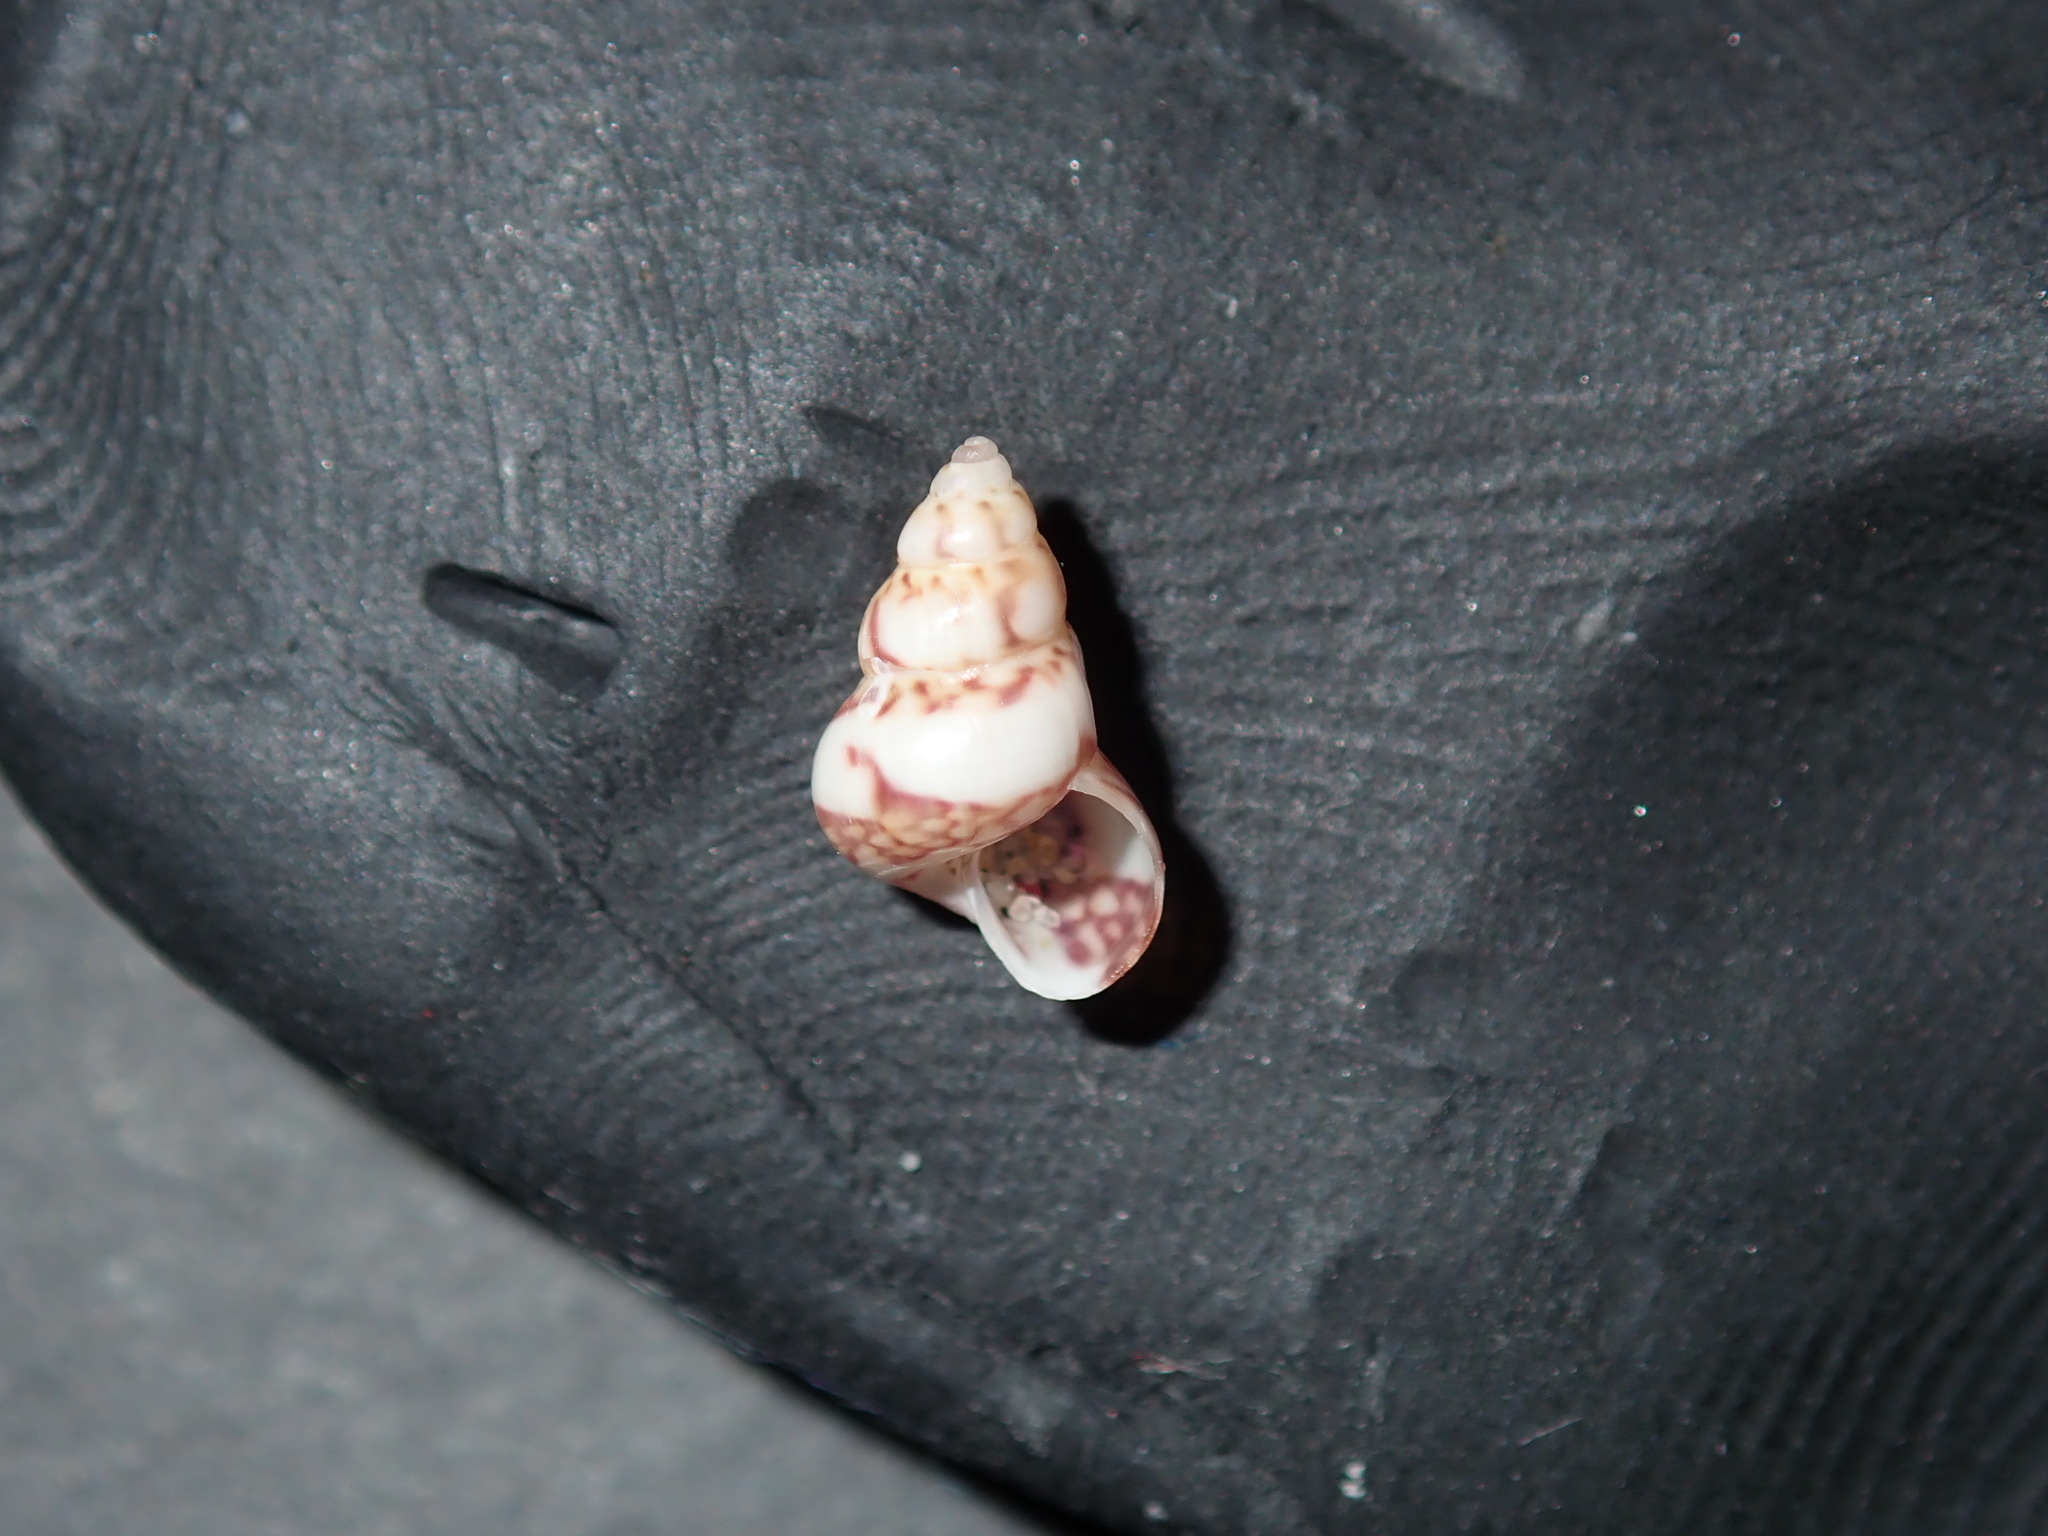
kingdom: Animalia
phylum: Mollusca
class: Gastropoda
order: Trochida
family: Trochidae
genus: Leiopyrga
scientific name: Leiopyrga lineolaris
